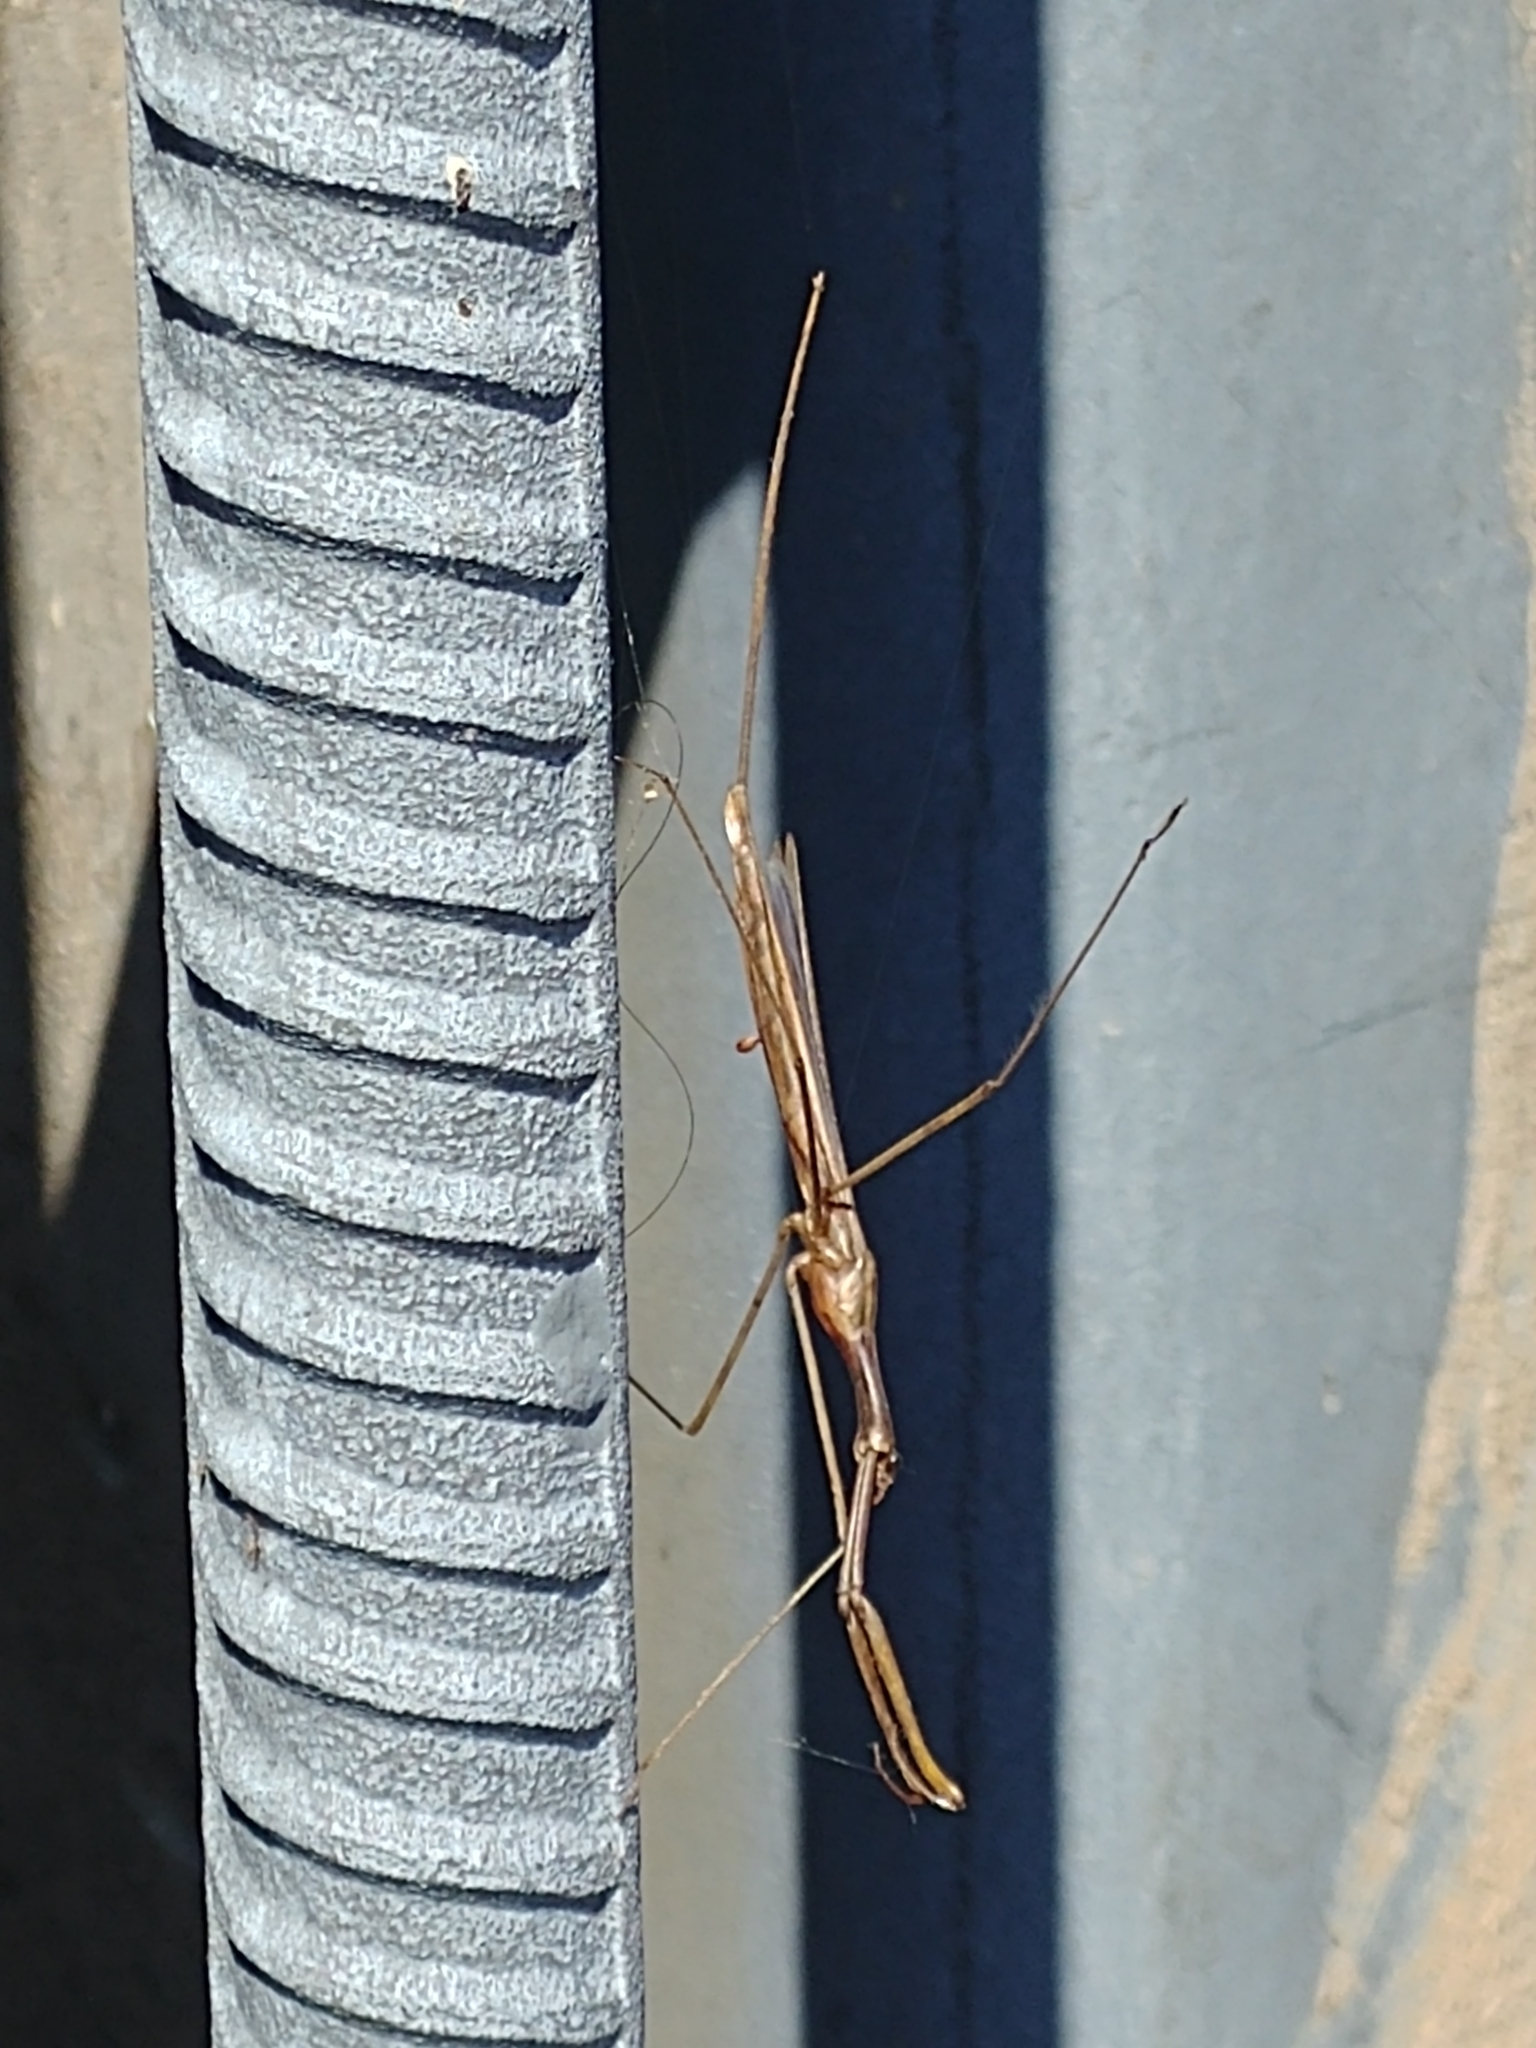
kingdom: Animalia
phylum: Arthropoda
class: Insecta
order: Hemiptera
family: Nepidae
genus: Ranatra
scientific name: Ranatra fusca
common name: Brown waterscorpion
